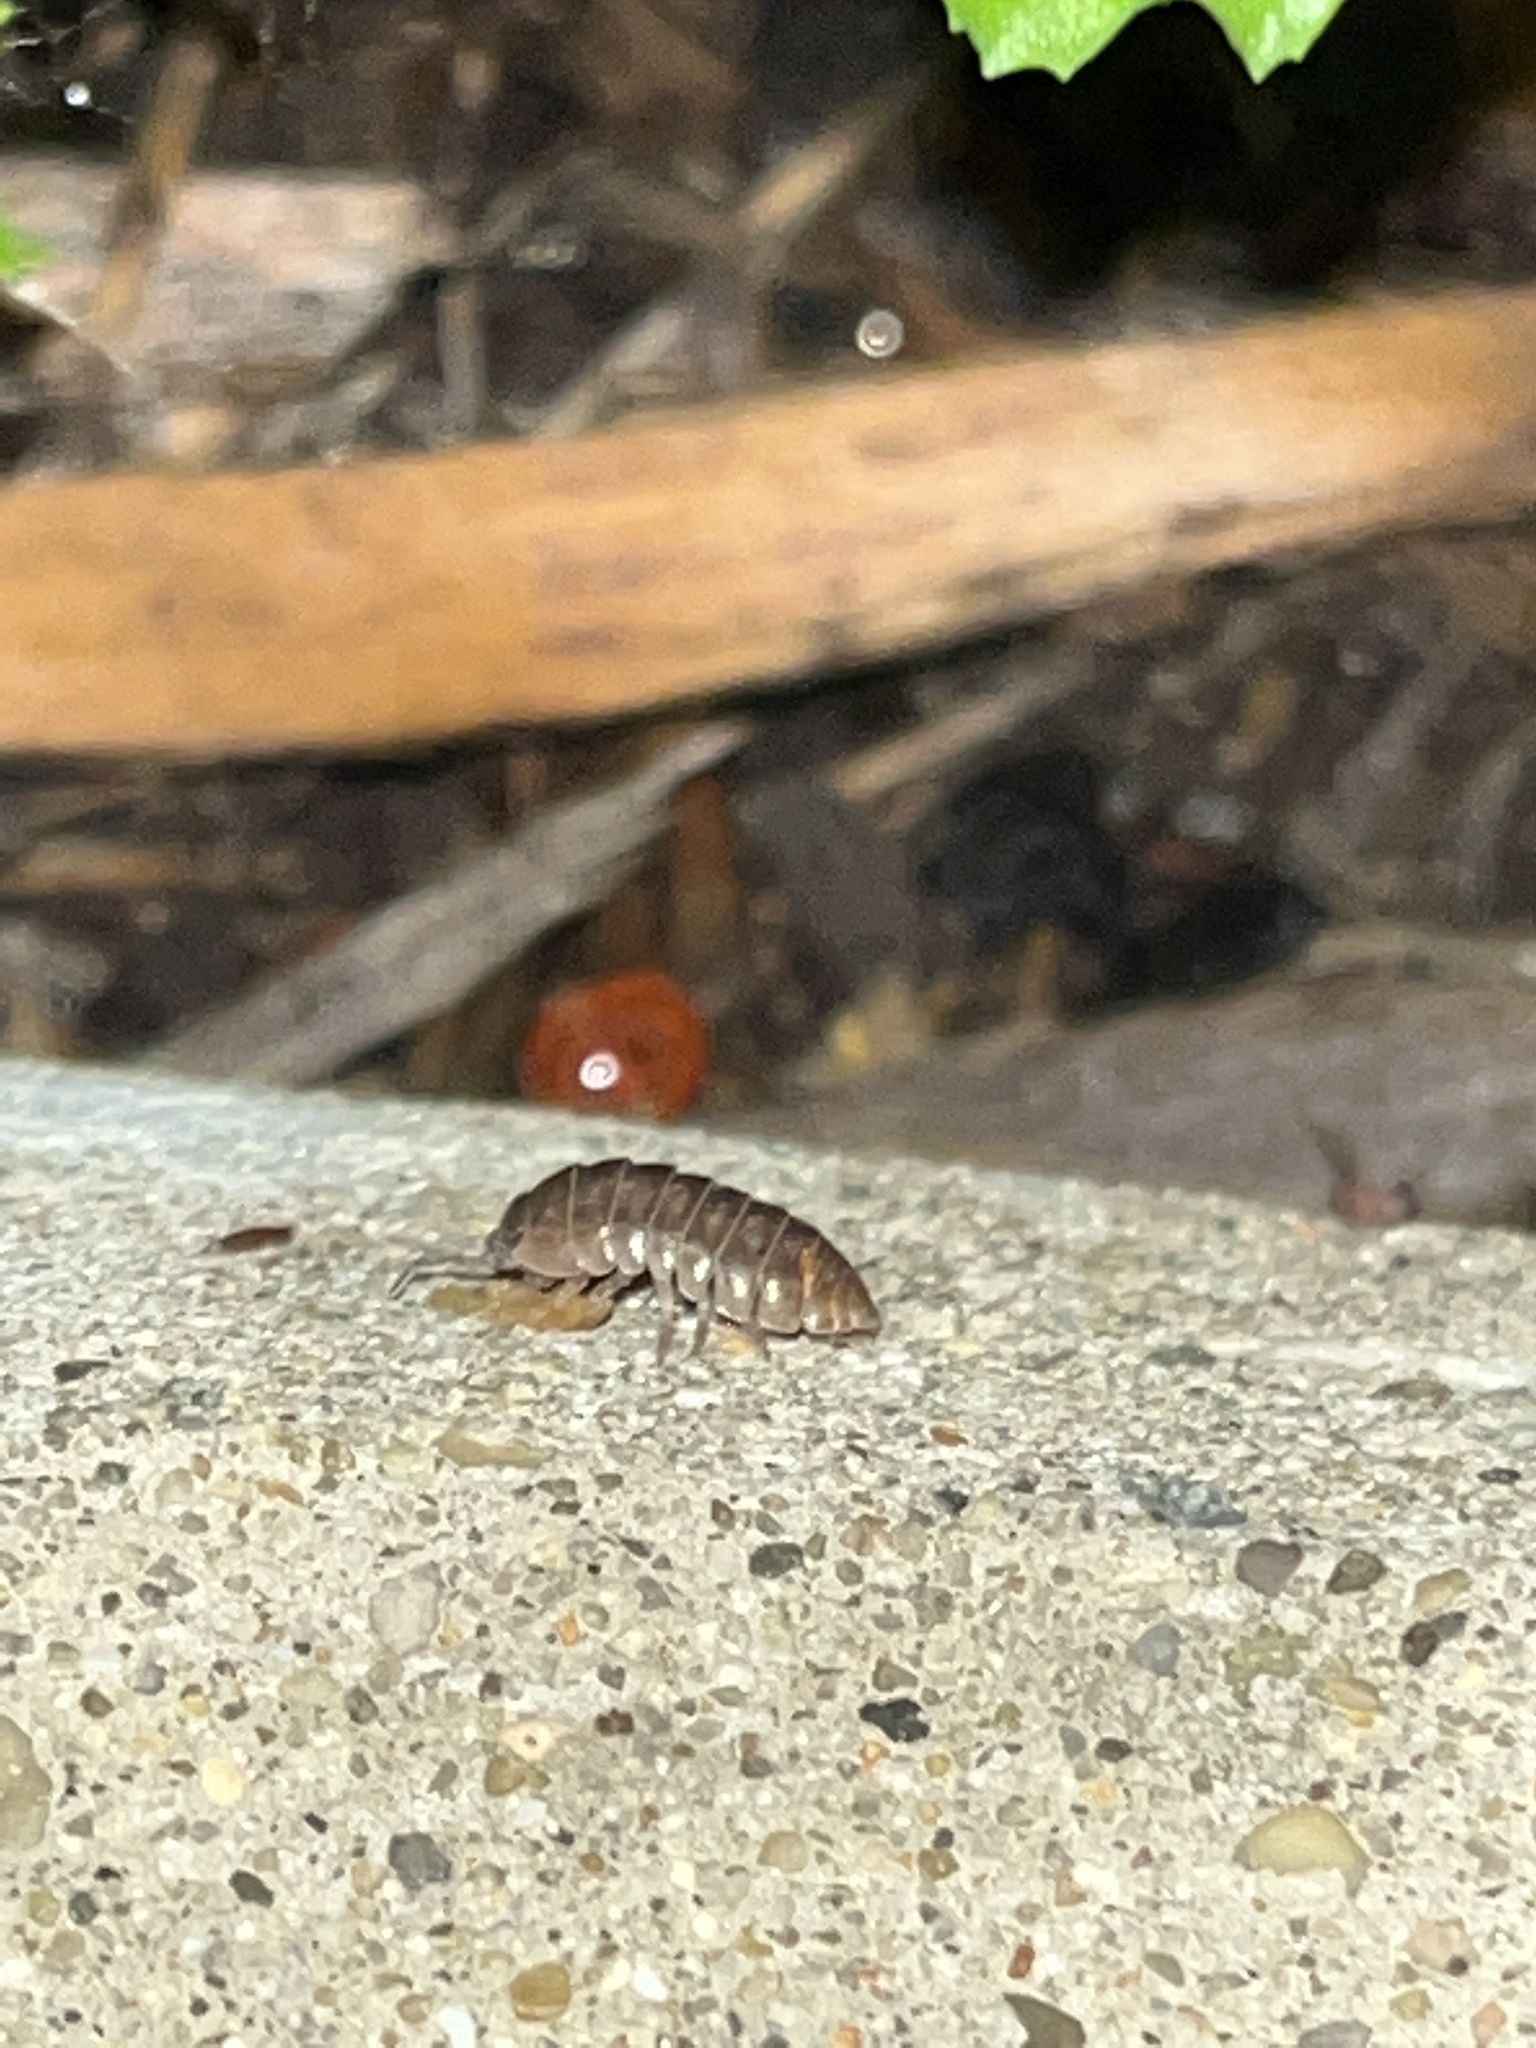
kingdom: Animalia
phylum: Arthropoda
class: Malacostraca
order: Isopoda
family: Armadillidiidae
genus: Armadillidium
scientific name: Armadillidium vulgare
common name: Common pill woodlouse
